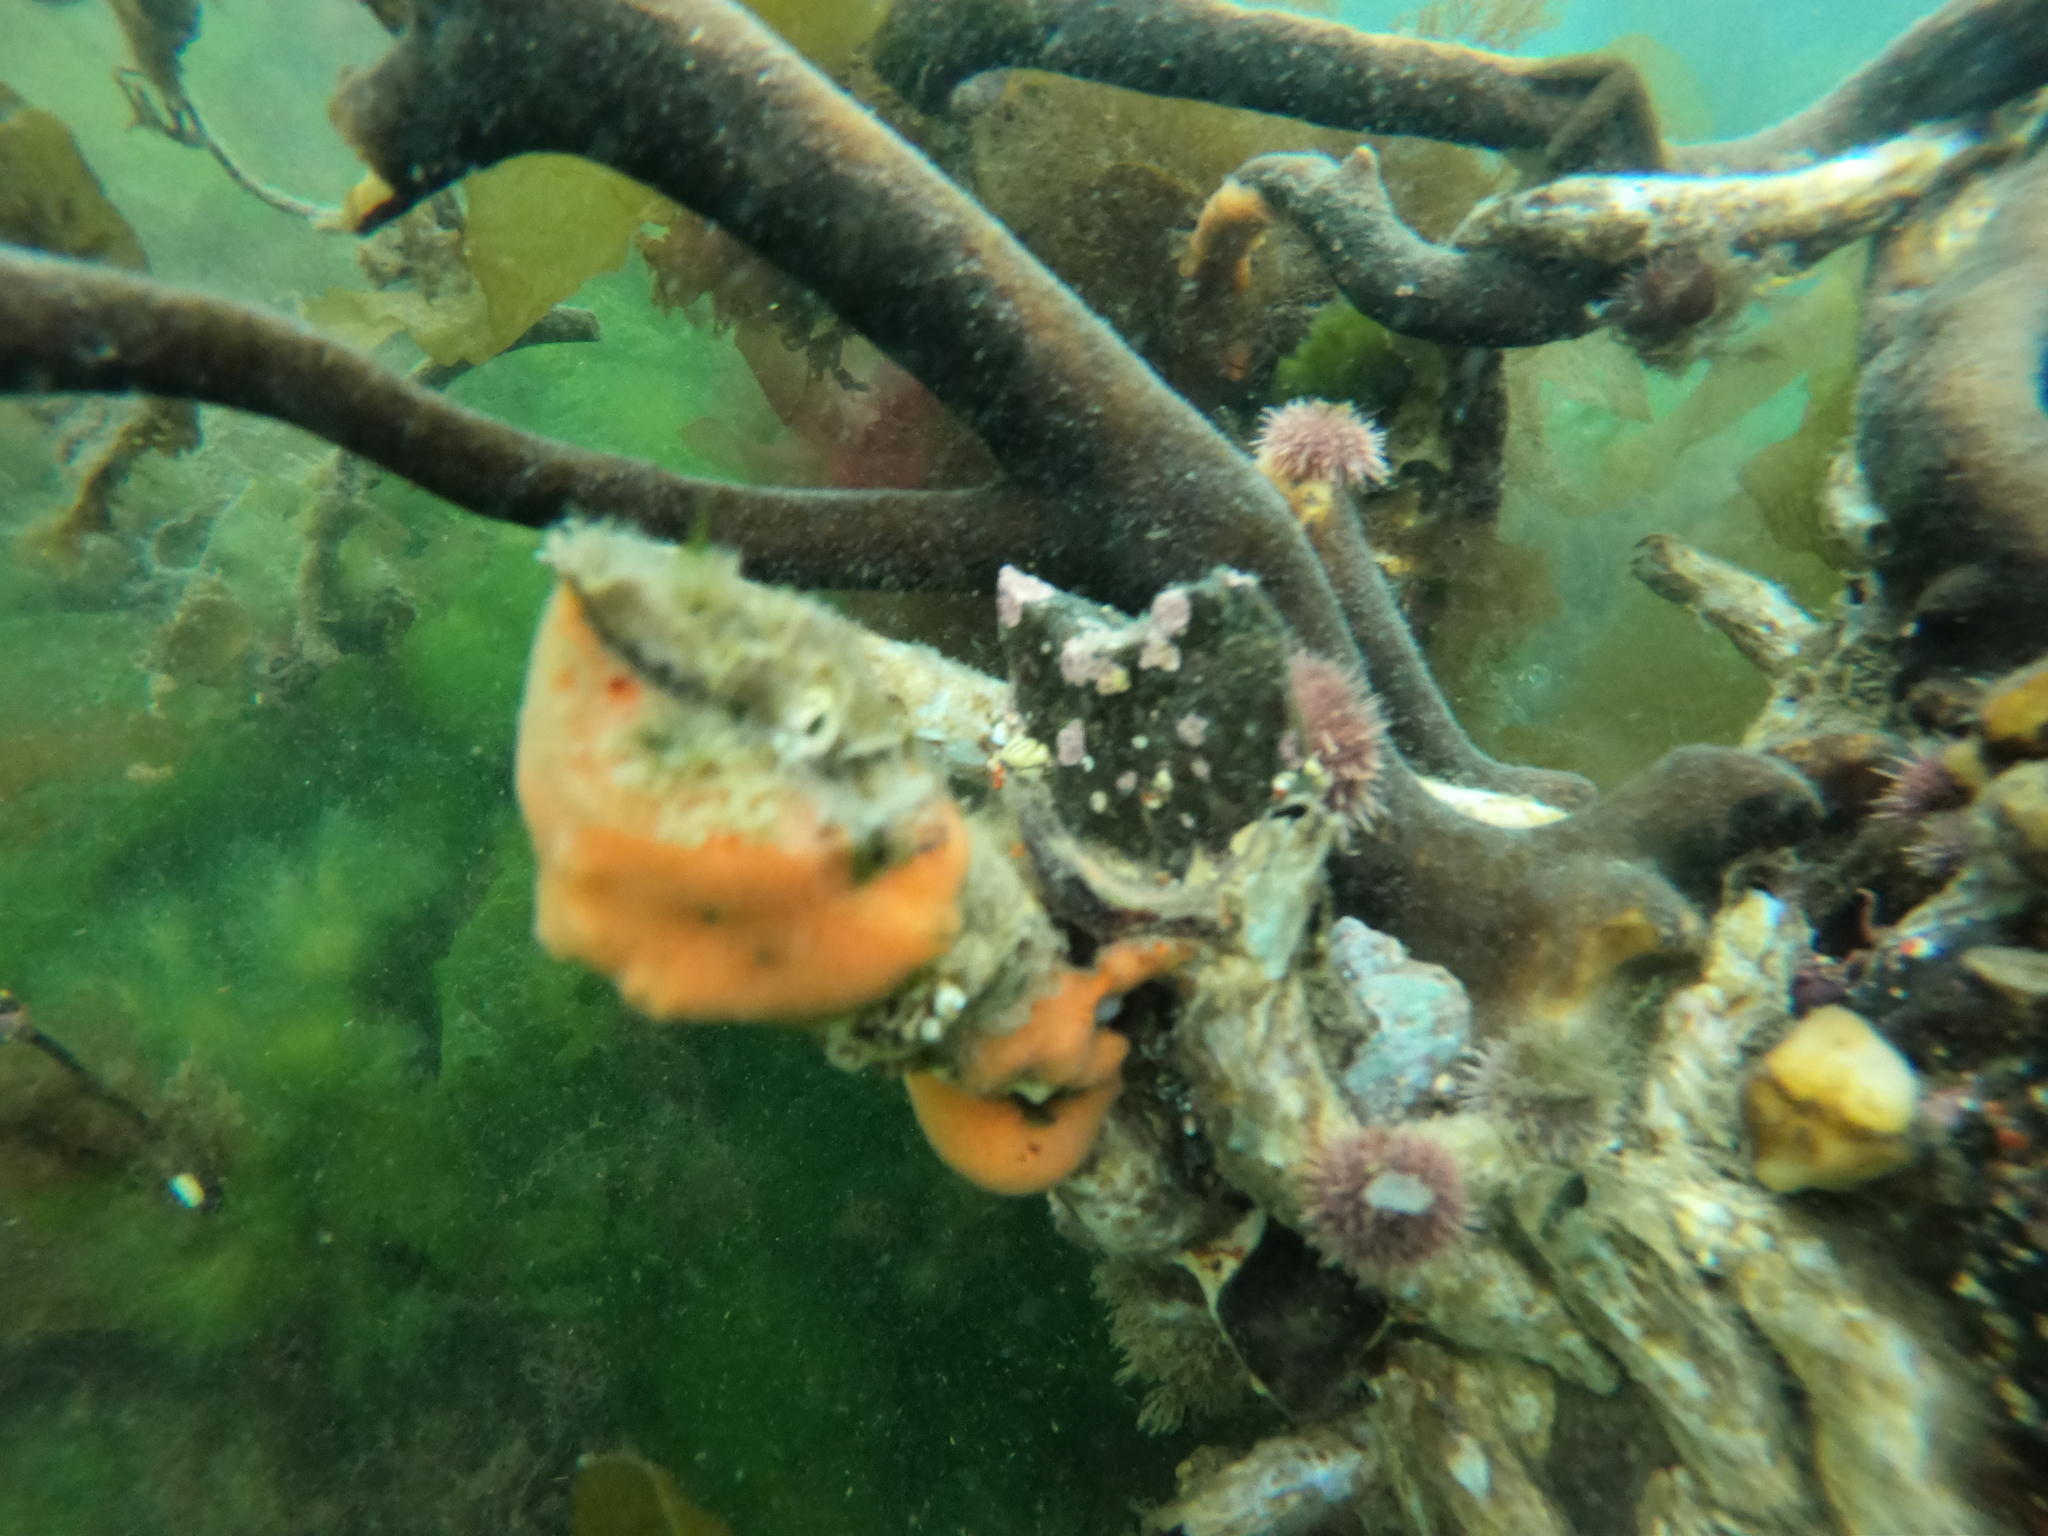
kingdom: Animalia
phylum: Echinodermata
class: Echinoidea
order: Camarodonta
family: Temnopleuridae
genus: Pseudechinus
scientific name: Pseudechinus magellanicus
